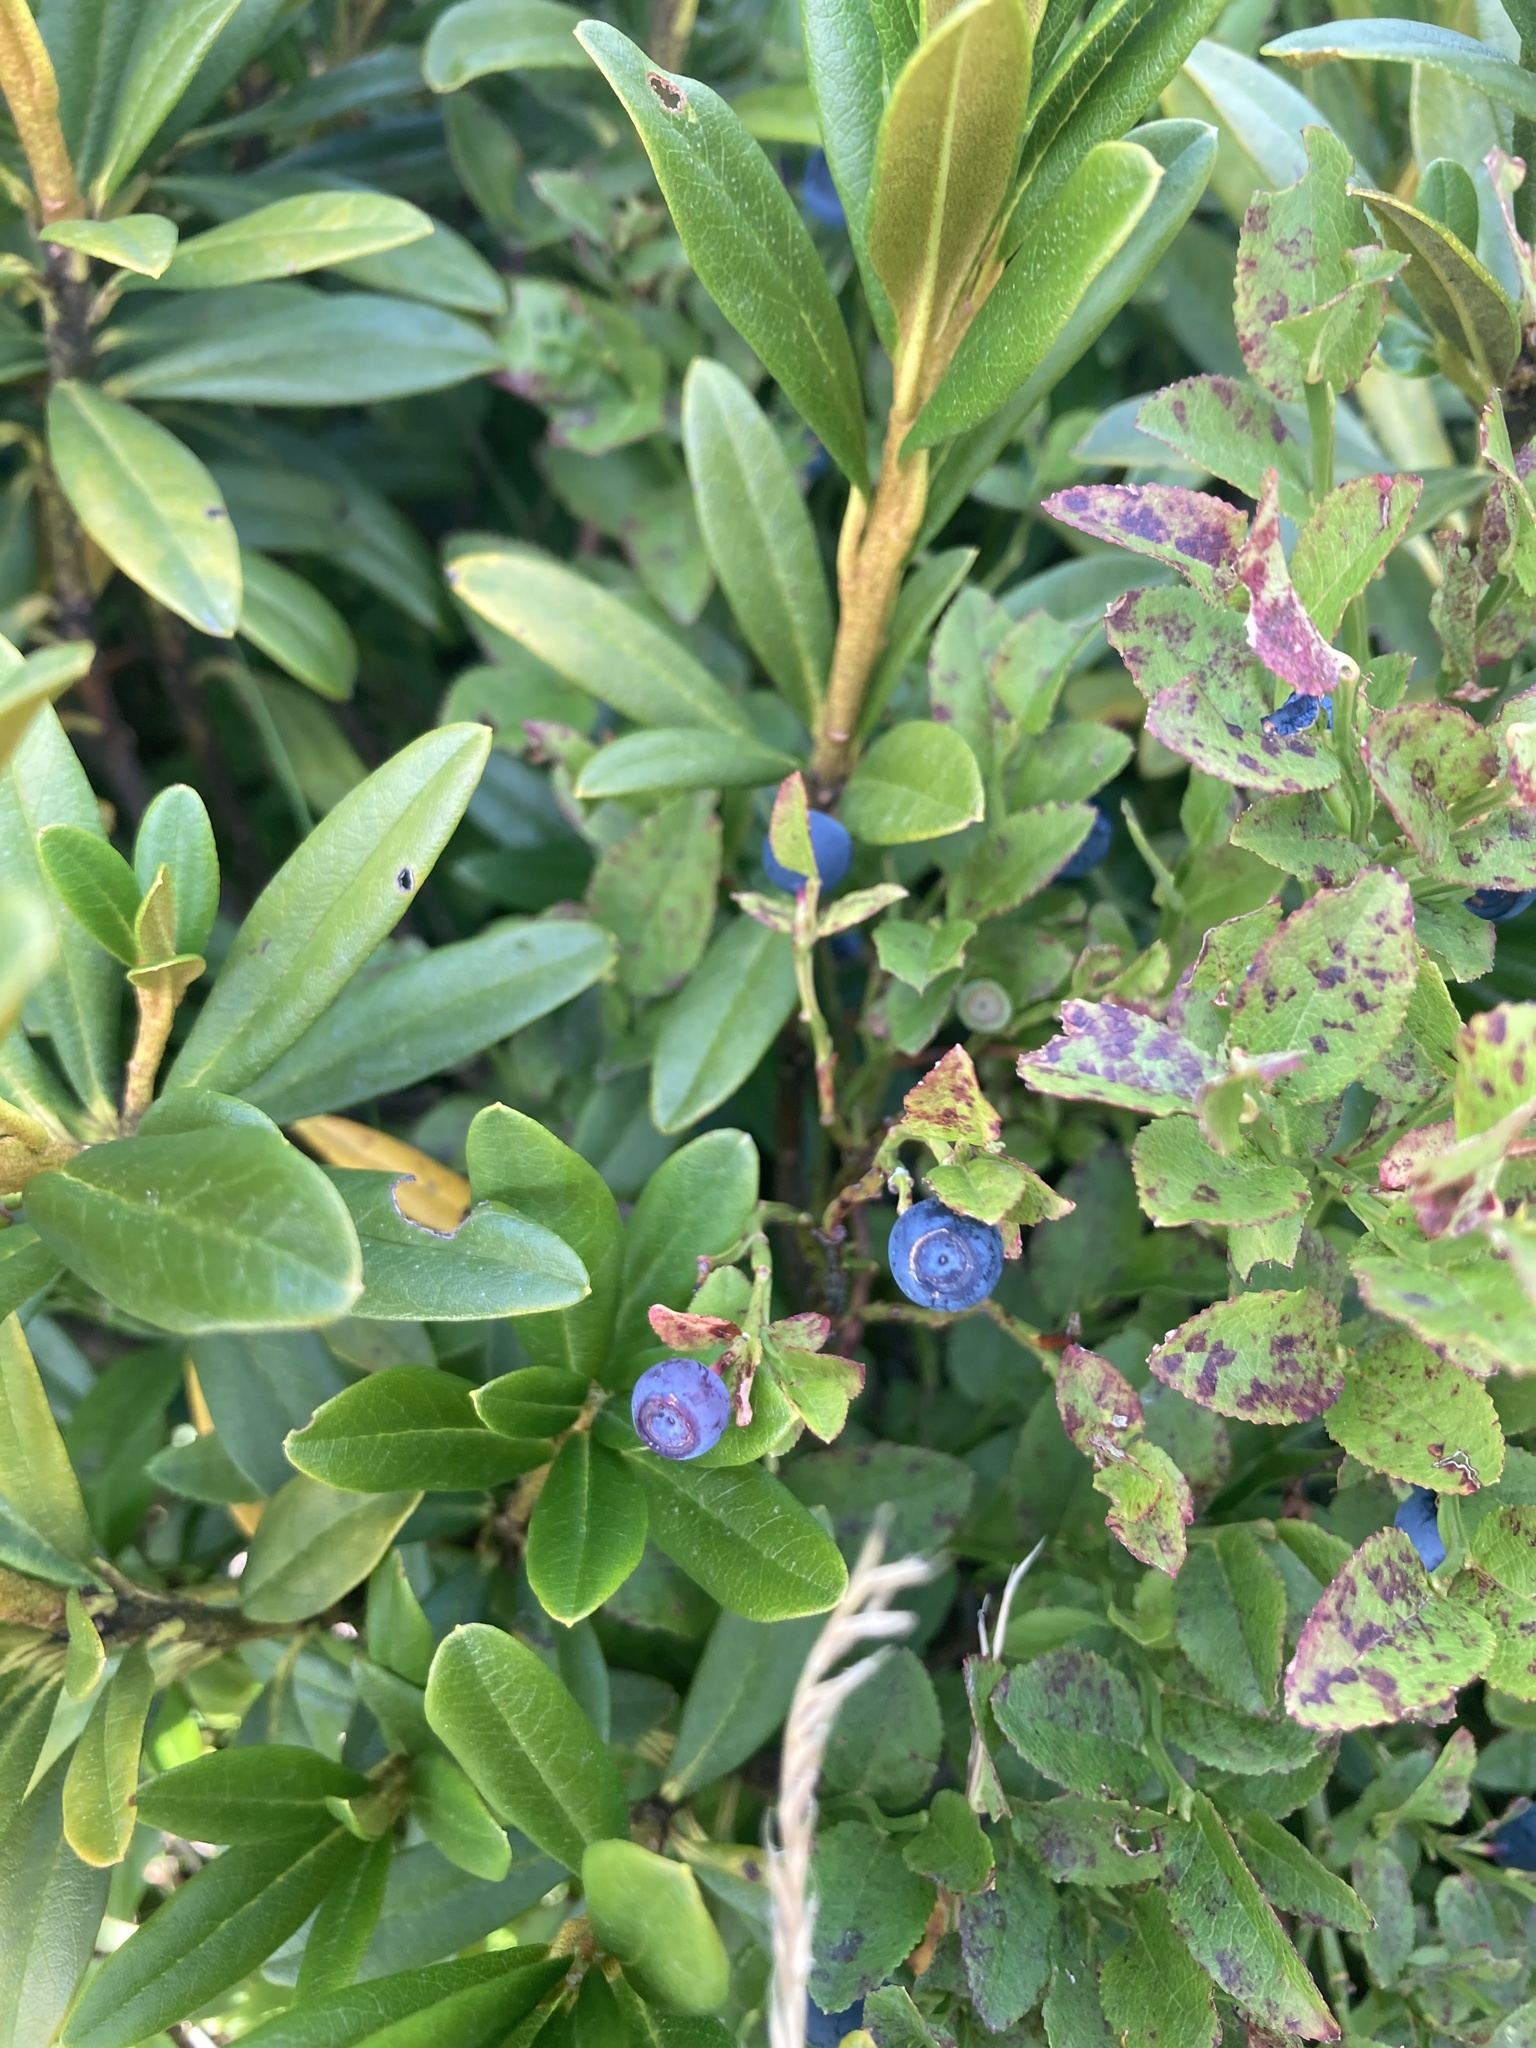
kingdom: Plantae
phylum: Tracheophyta
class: Magnoliopsida
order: Ericales
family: Ericaceae
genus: Vaccinium
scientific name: Vaccinium myrtillus
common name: Bilberry
